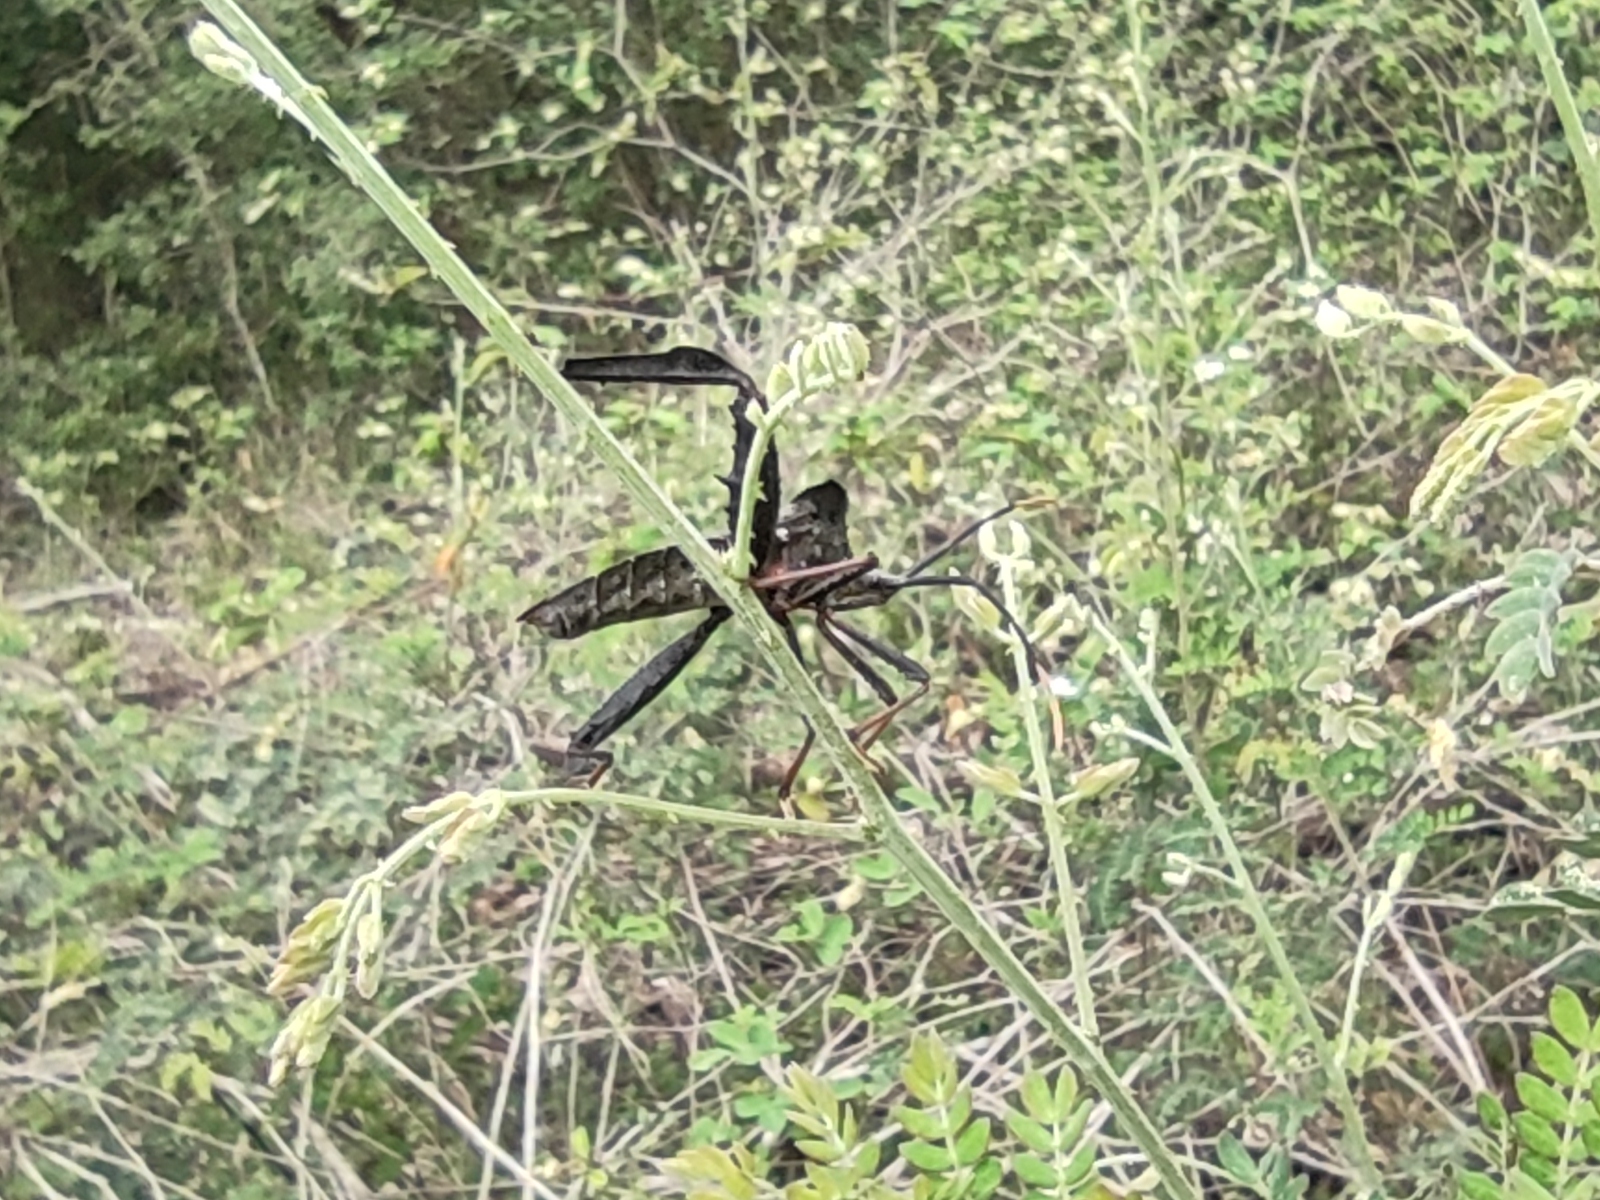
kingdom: Animalia
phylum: Arthropoda
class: Insecta
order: Hemiptera
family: Coreidae
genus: Acanthocephala
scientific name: Acanthocephala alata
